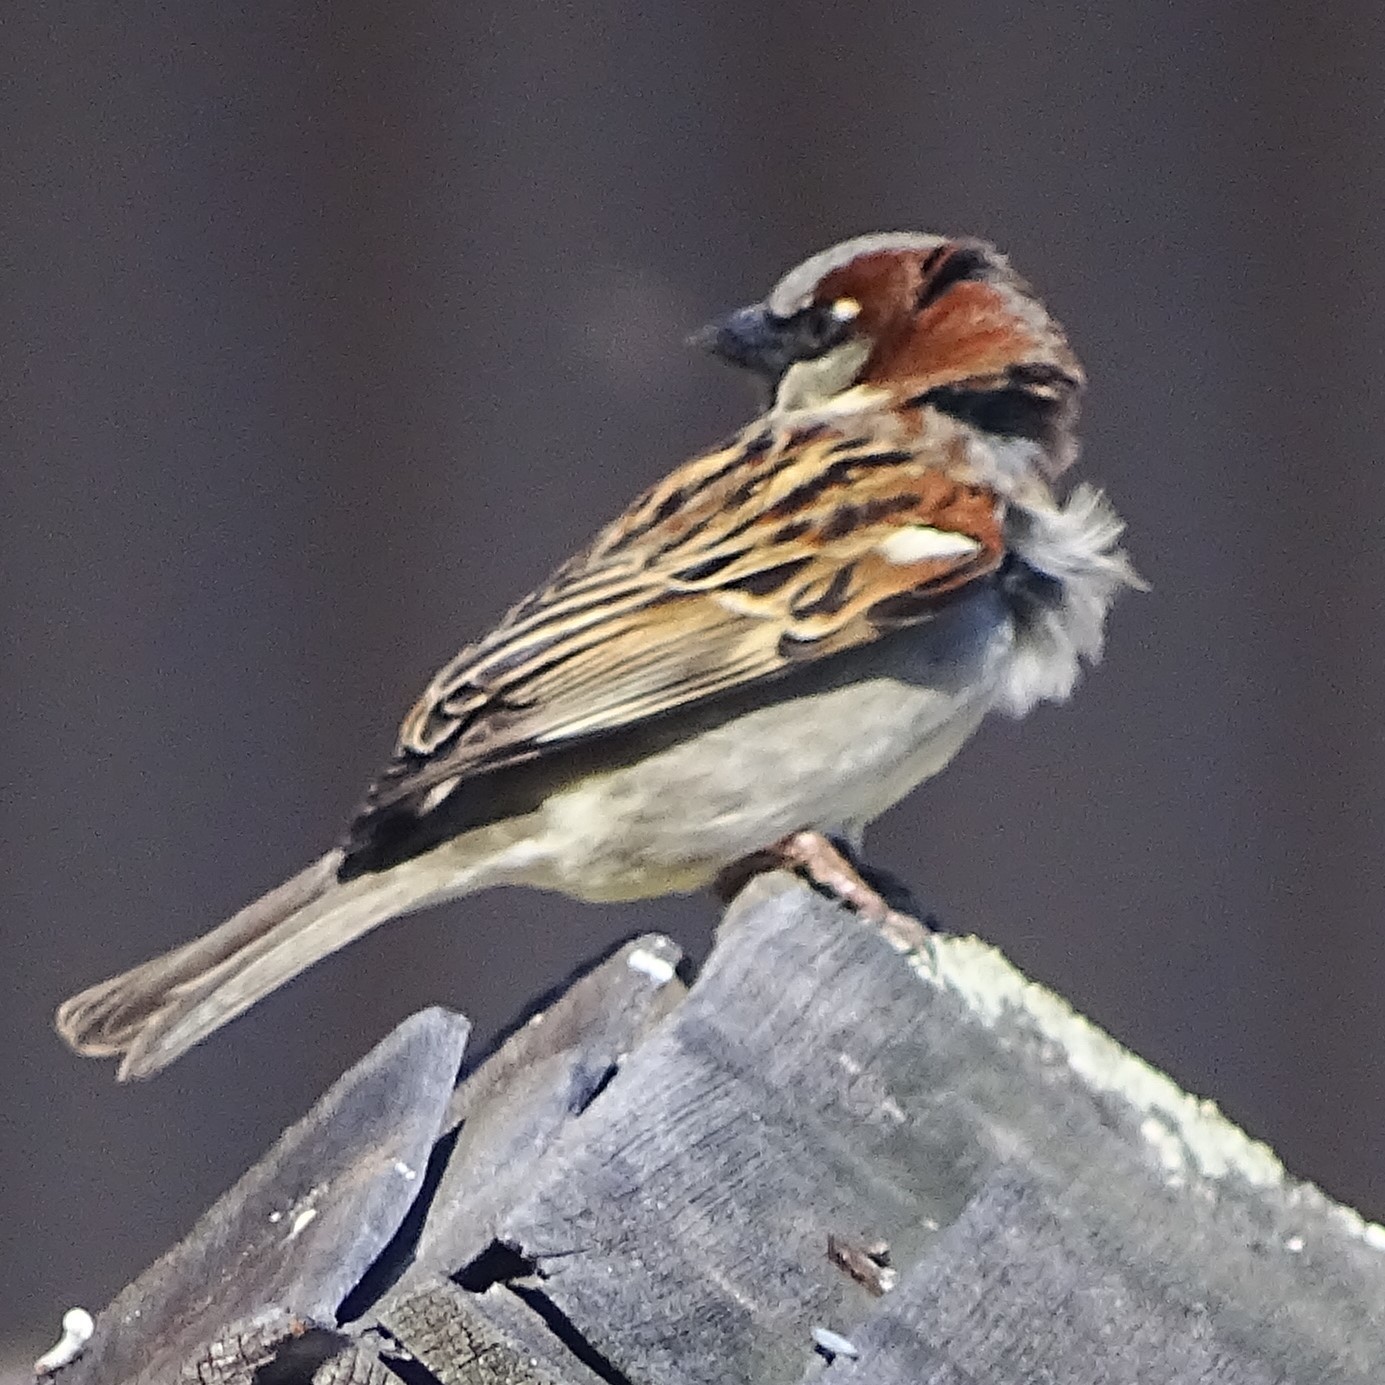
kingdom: Animalia
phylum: Chordata
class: Aves
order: Passeriformes
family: Passeridae
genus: Passer
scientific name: Passer domesticus
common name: House sparrow
